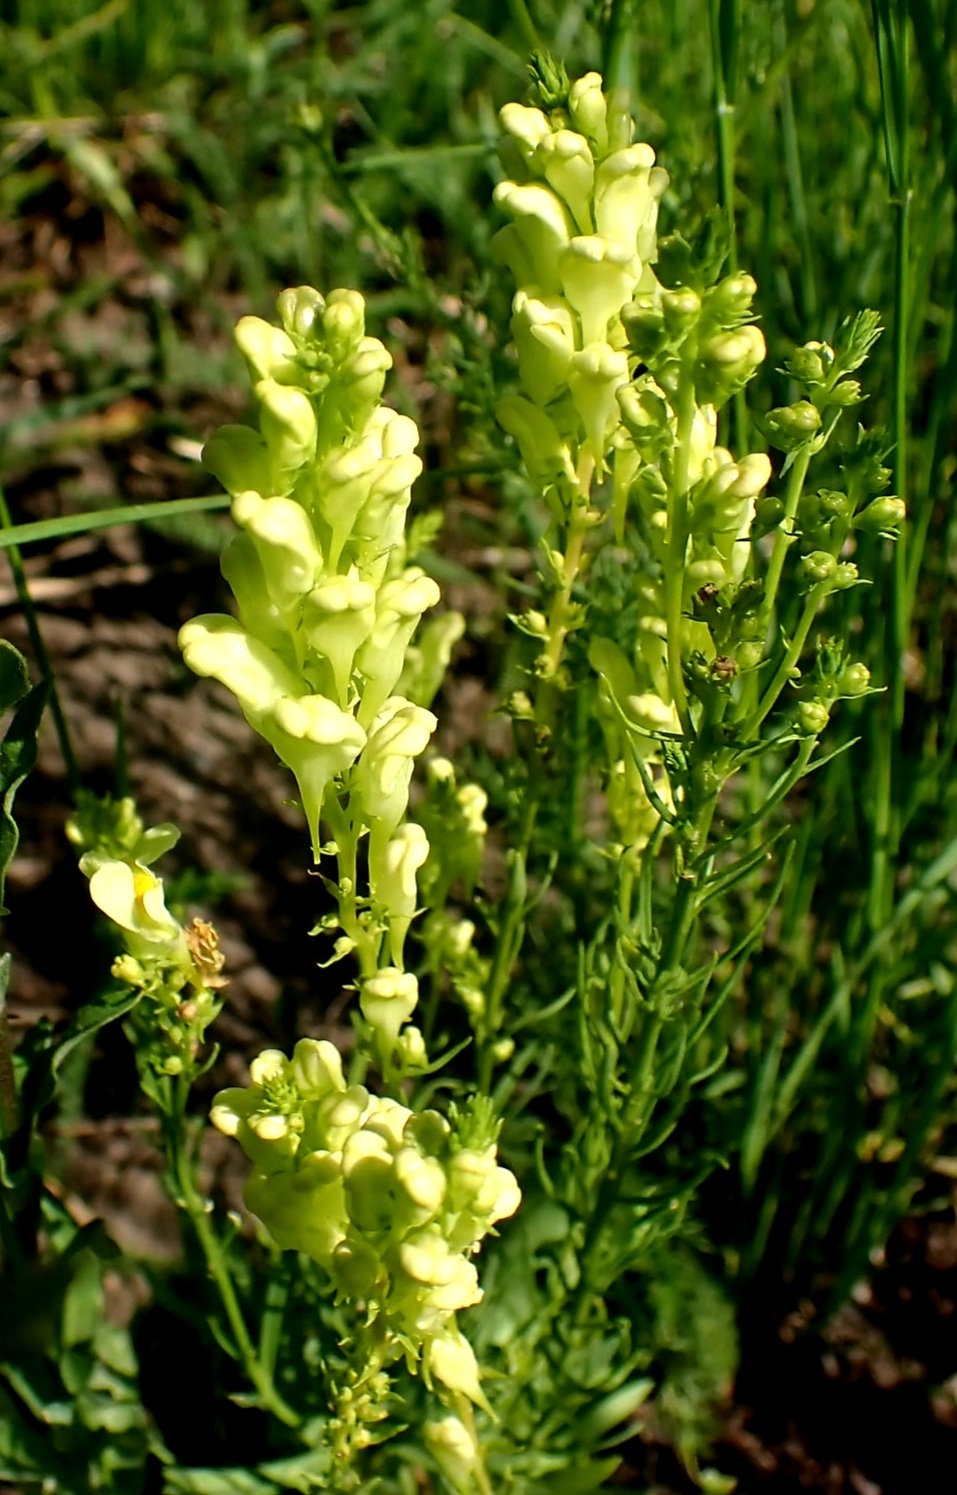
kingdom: Plantae
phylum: Tracheophyta
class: Magnoliopsida
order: Lamiales
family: Plantaginaceae
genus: Linaria
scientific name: Linaria vulgaris
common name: Butter and eggs
